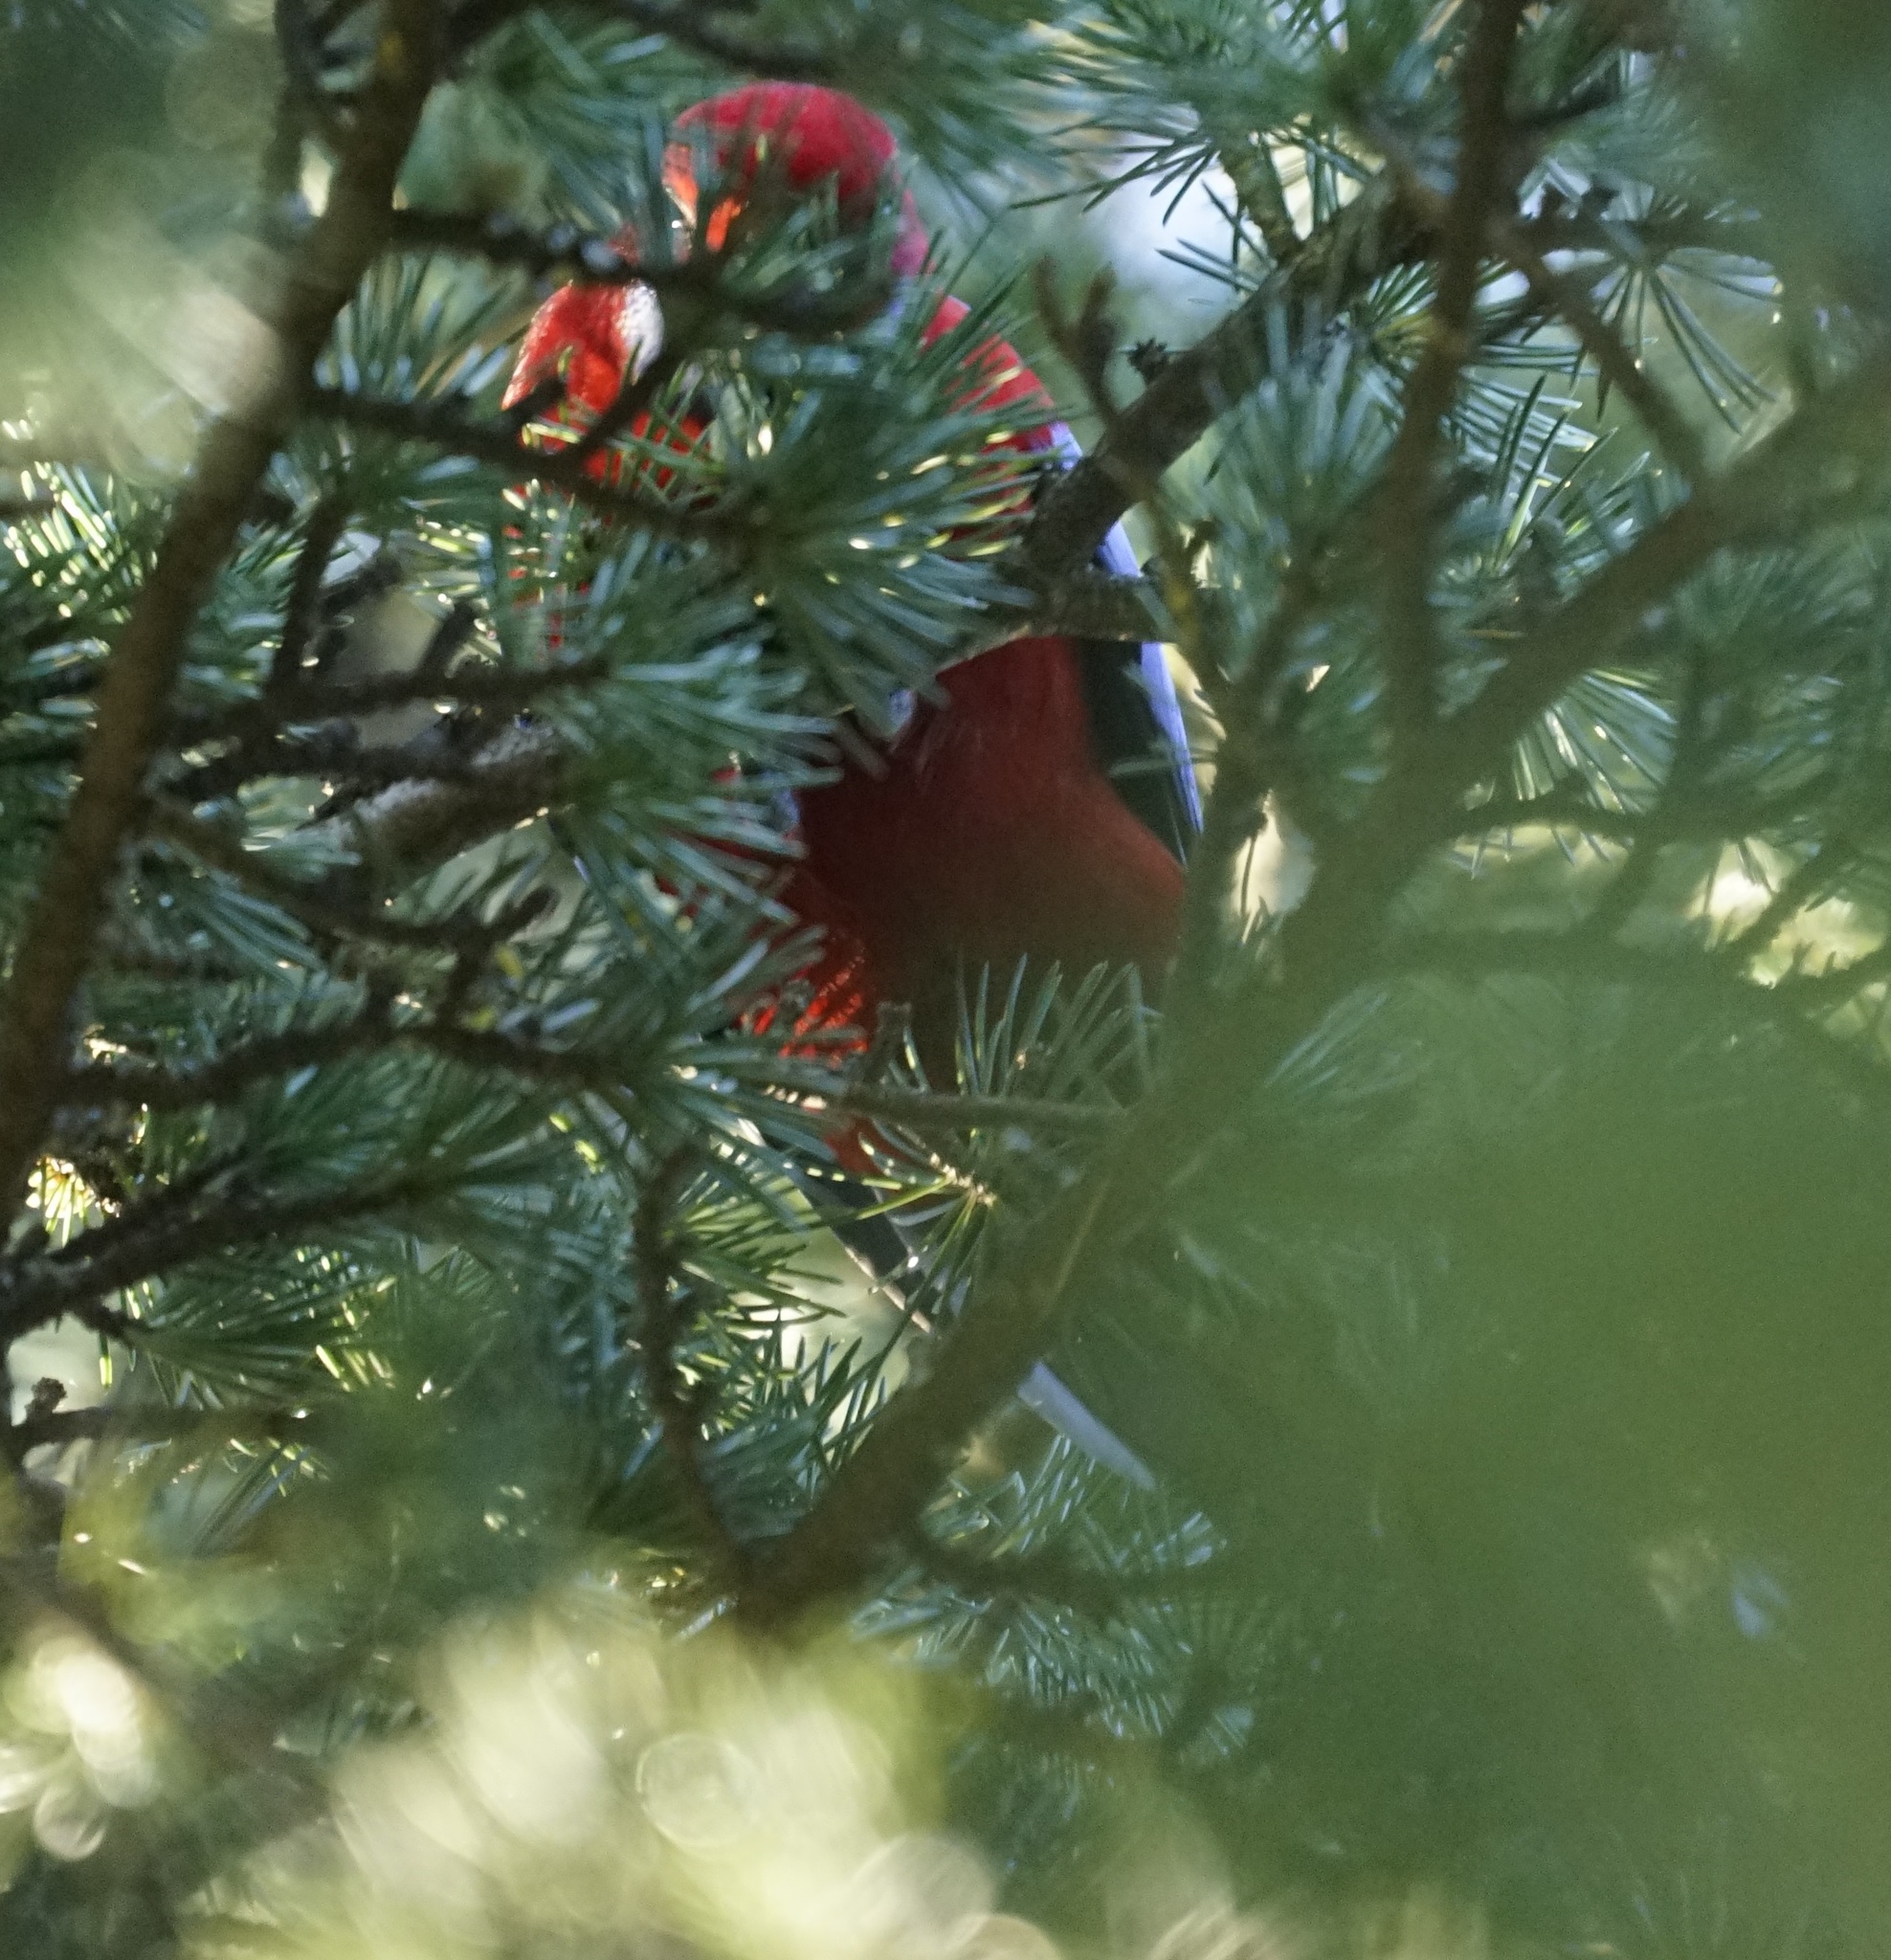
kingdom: Animalia
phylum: Chordata
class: Aves
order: Psittaciformes
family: Psittacidae
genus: Platycercus
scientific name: Platycercus elegans
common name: Crimson rosella
